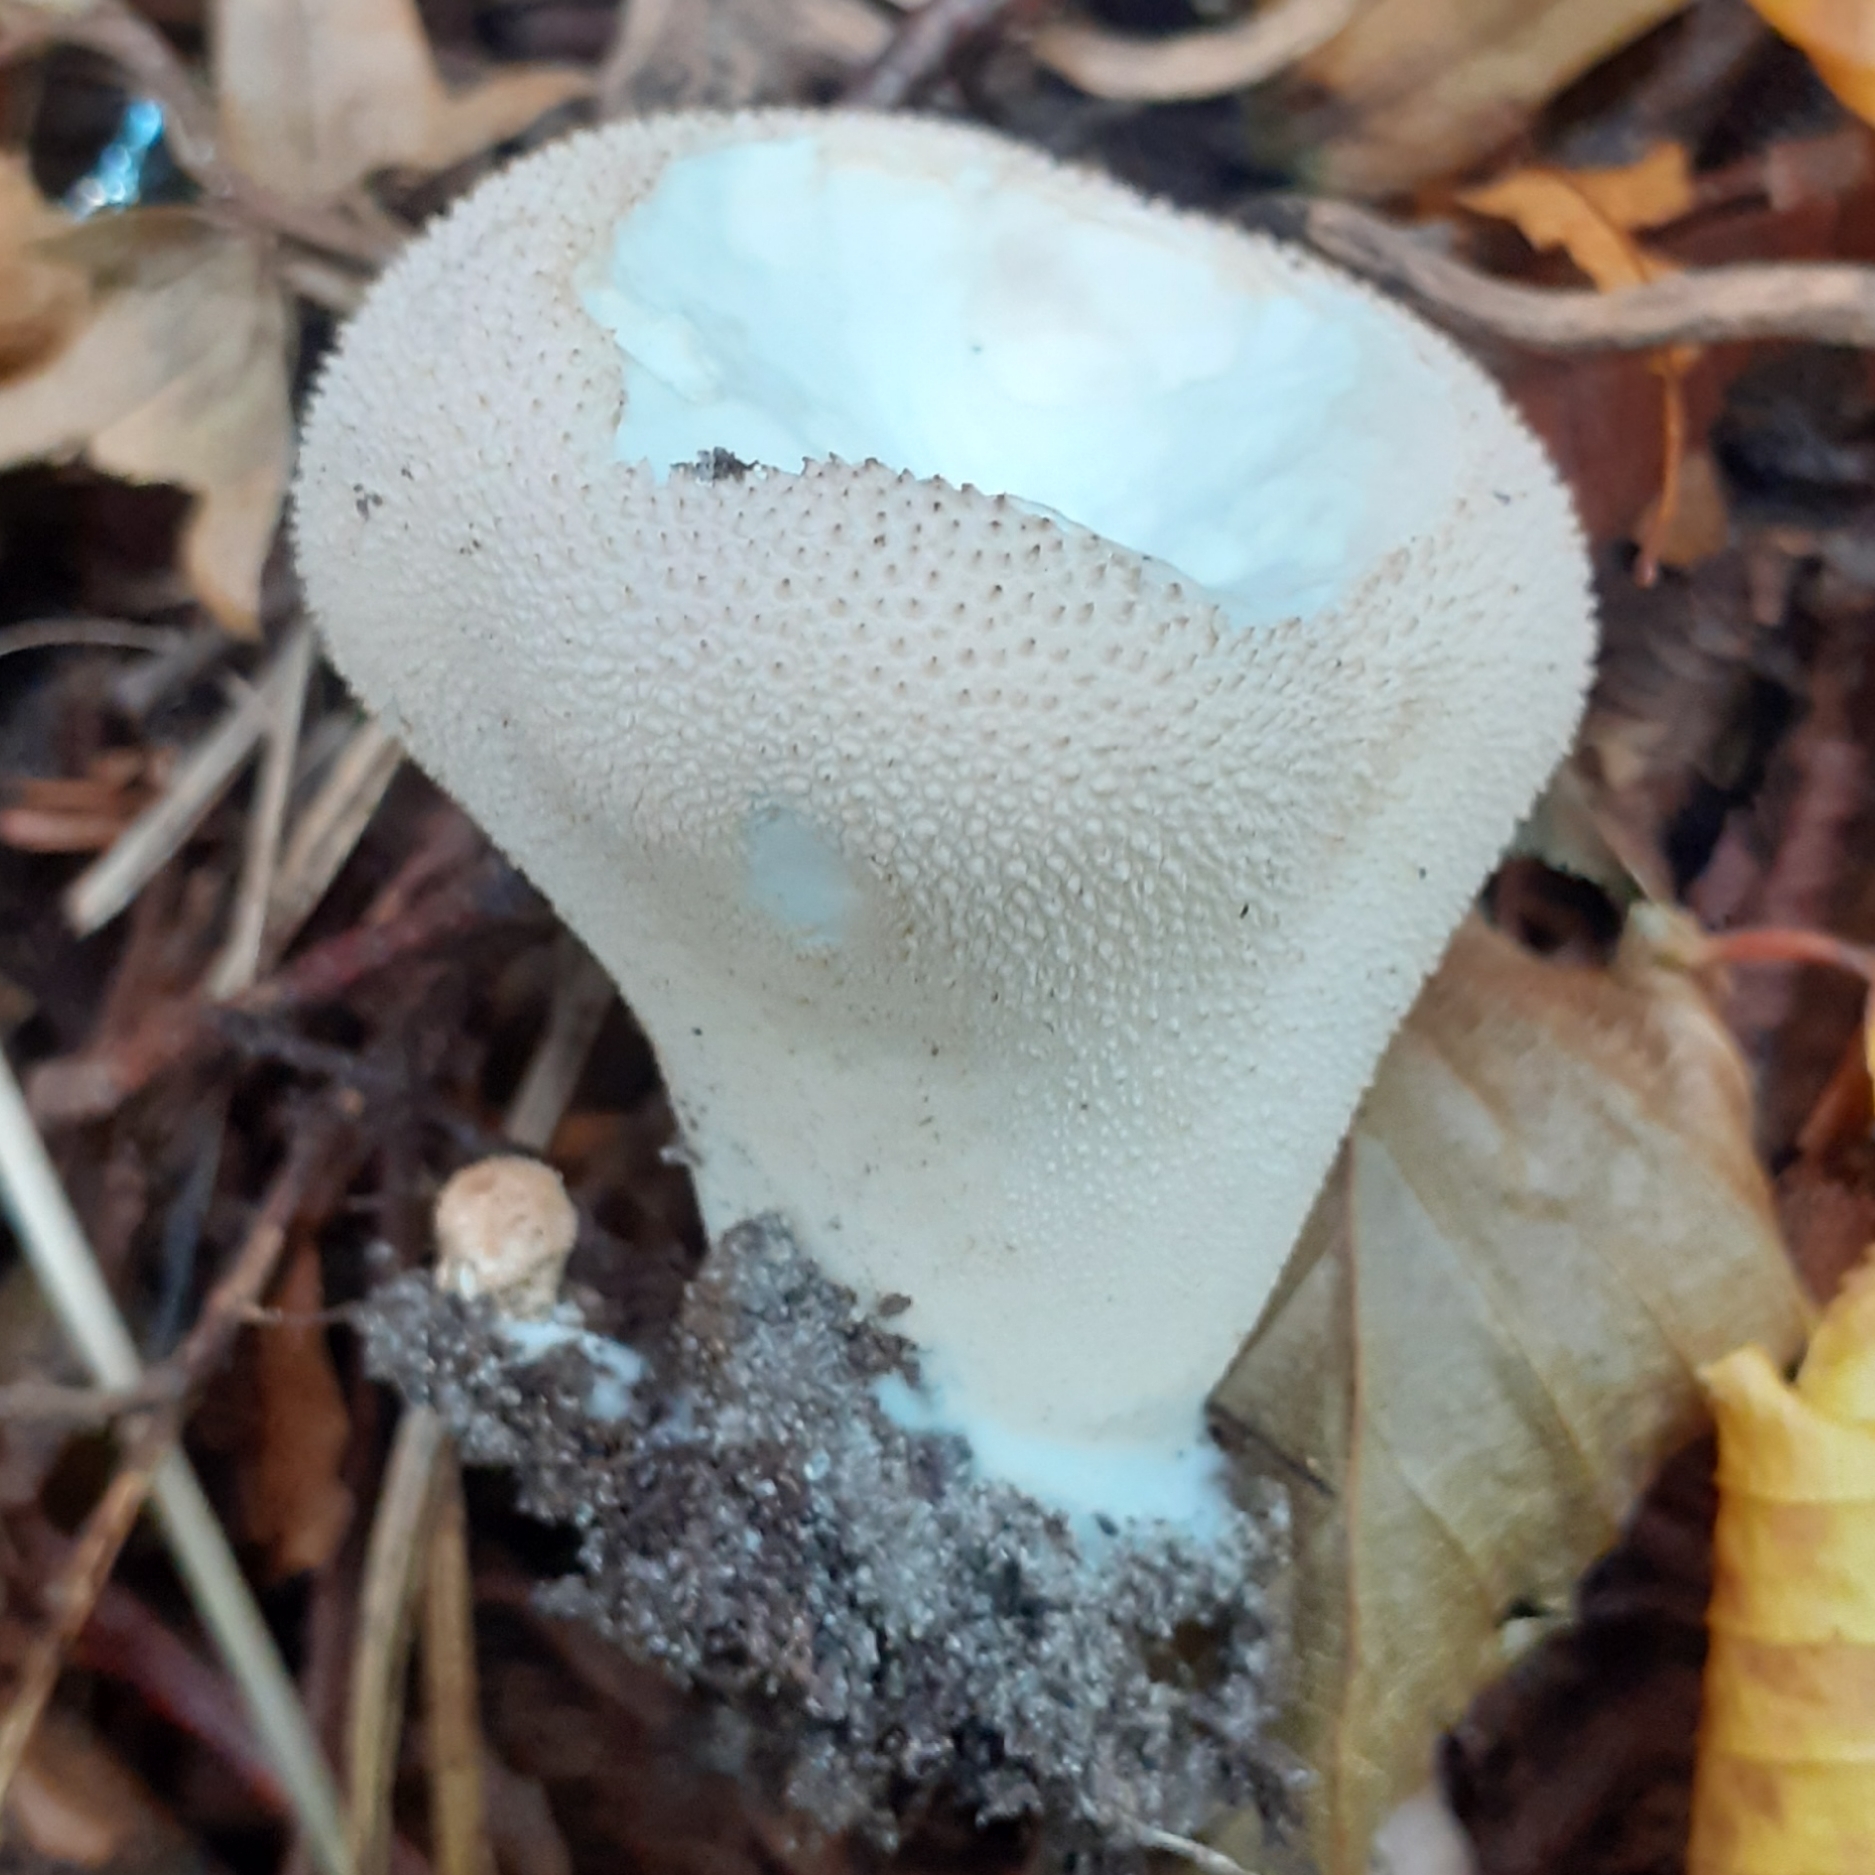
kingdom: Fungi
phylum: Basidiomycota
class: Agaricomycetes
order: Agaricales
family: Lycoperdaceae
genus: Lycoperdon
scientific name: Lycoperdon perlatum
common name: Common puffball
